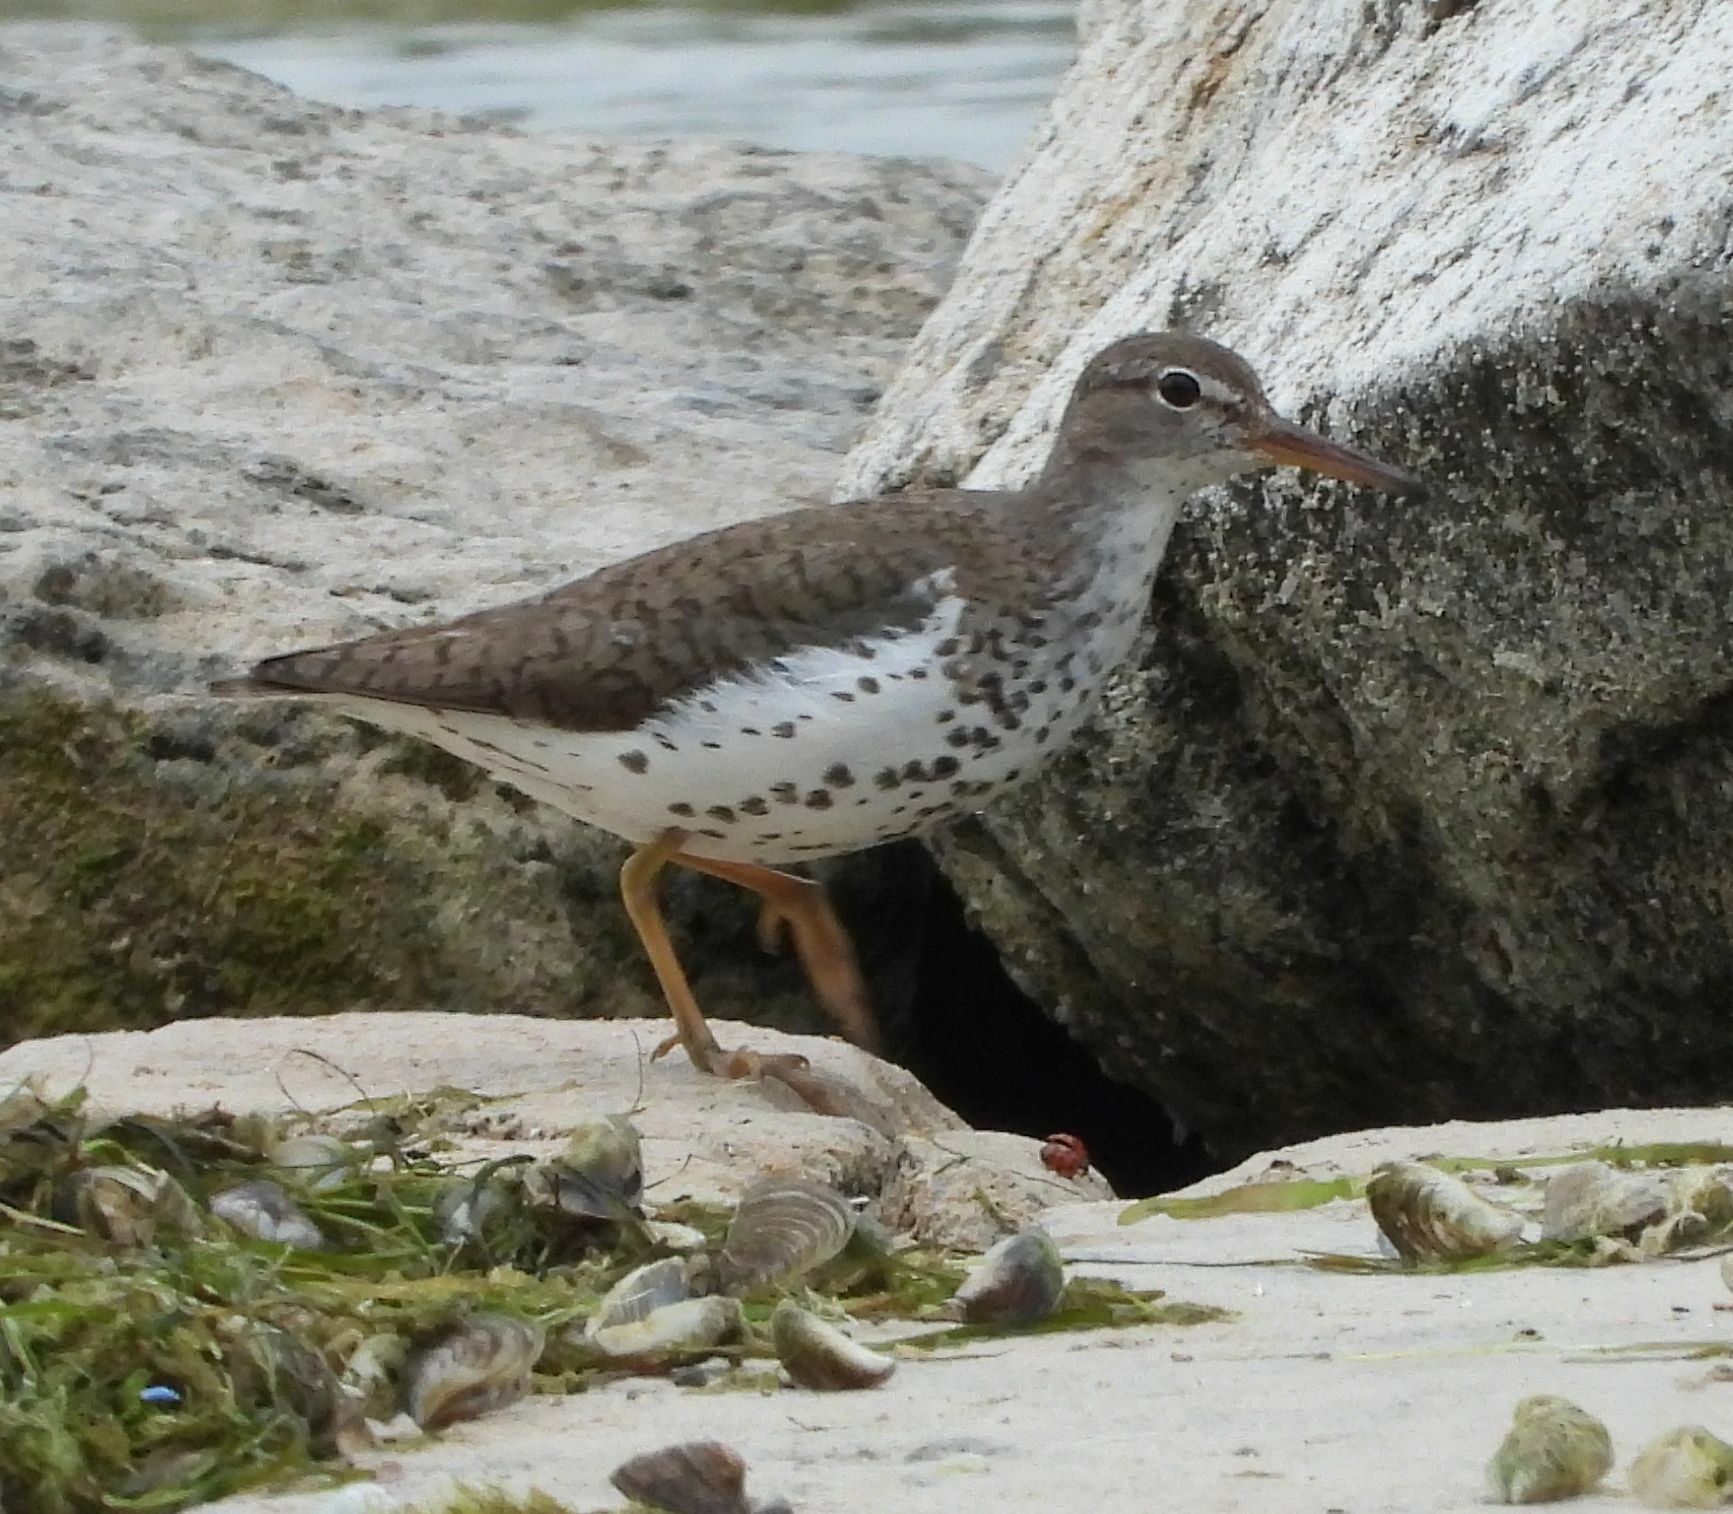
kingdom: Animalia
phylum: Chordata
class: Aves
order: Charadriiformes
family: Scolopacidae
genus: Actitis
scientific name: Actitis macularius
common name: Spotted sandpiper
